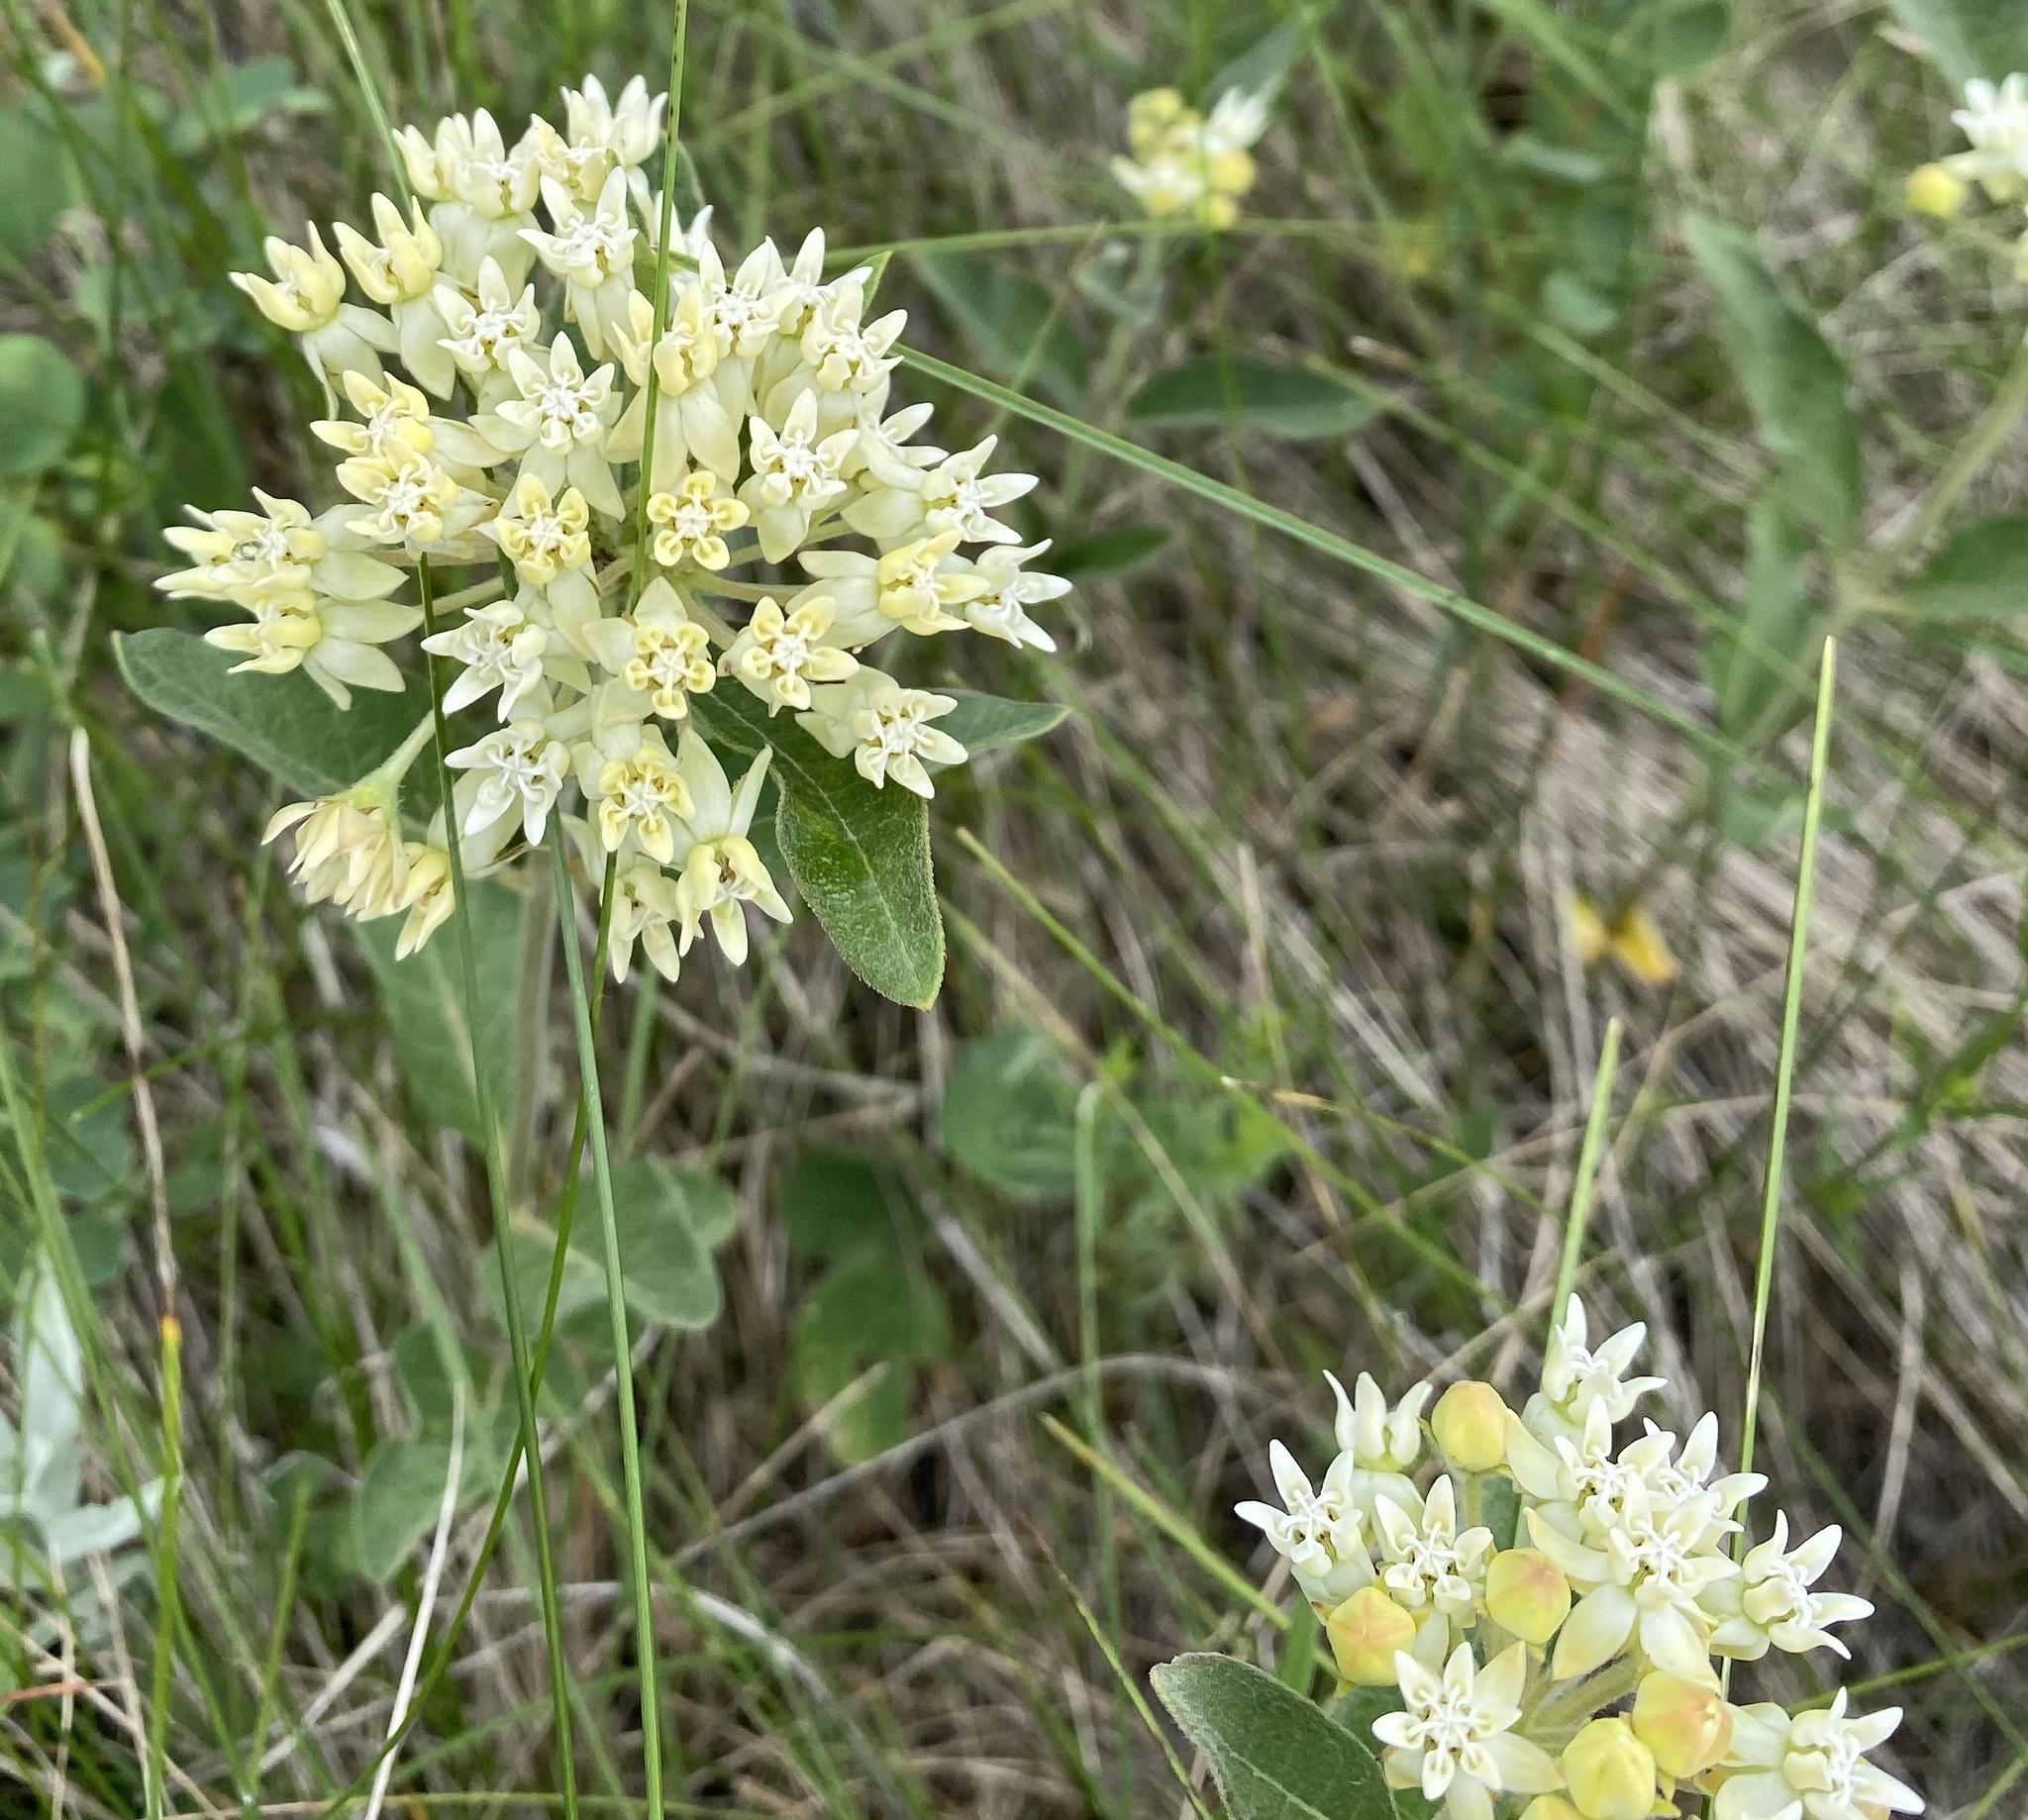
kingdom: Plantae
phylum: Tracheophyta
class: Magnoliopsida
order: Gentianales
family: Apocynaceae
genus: Asclepias
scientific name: Asclepias ovalifolia
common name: Dwarf milkweed
